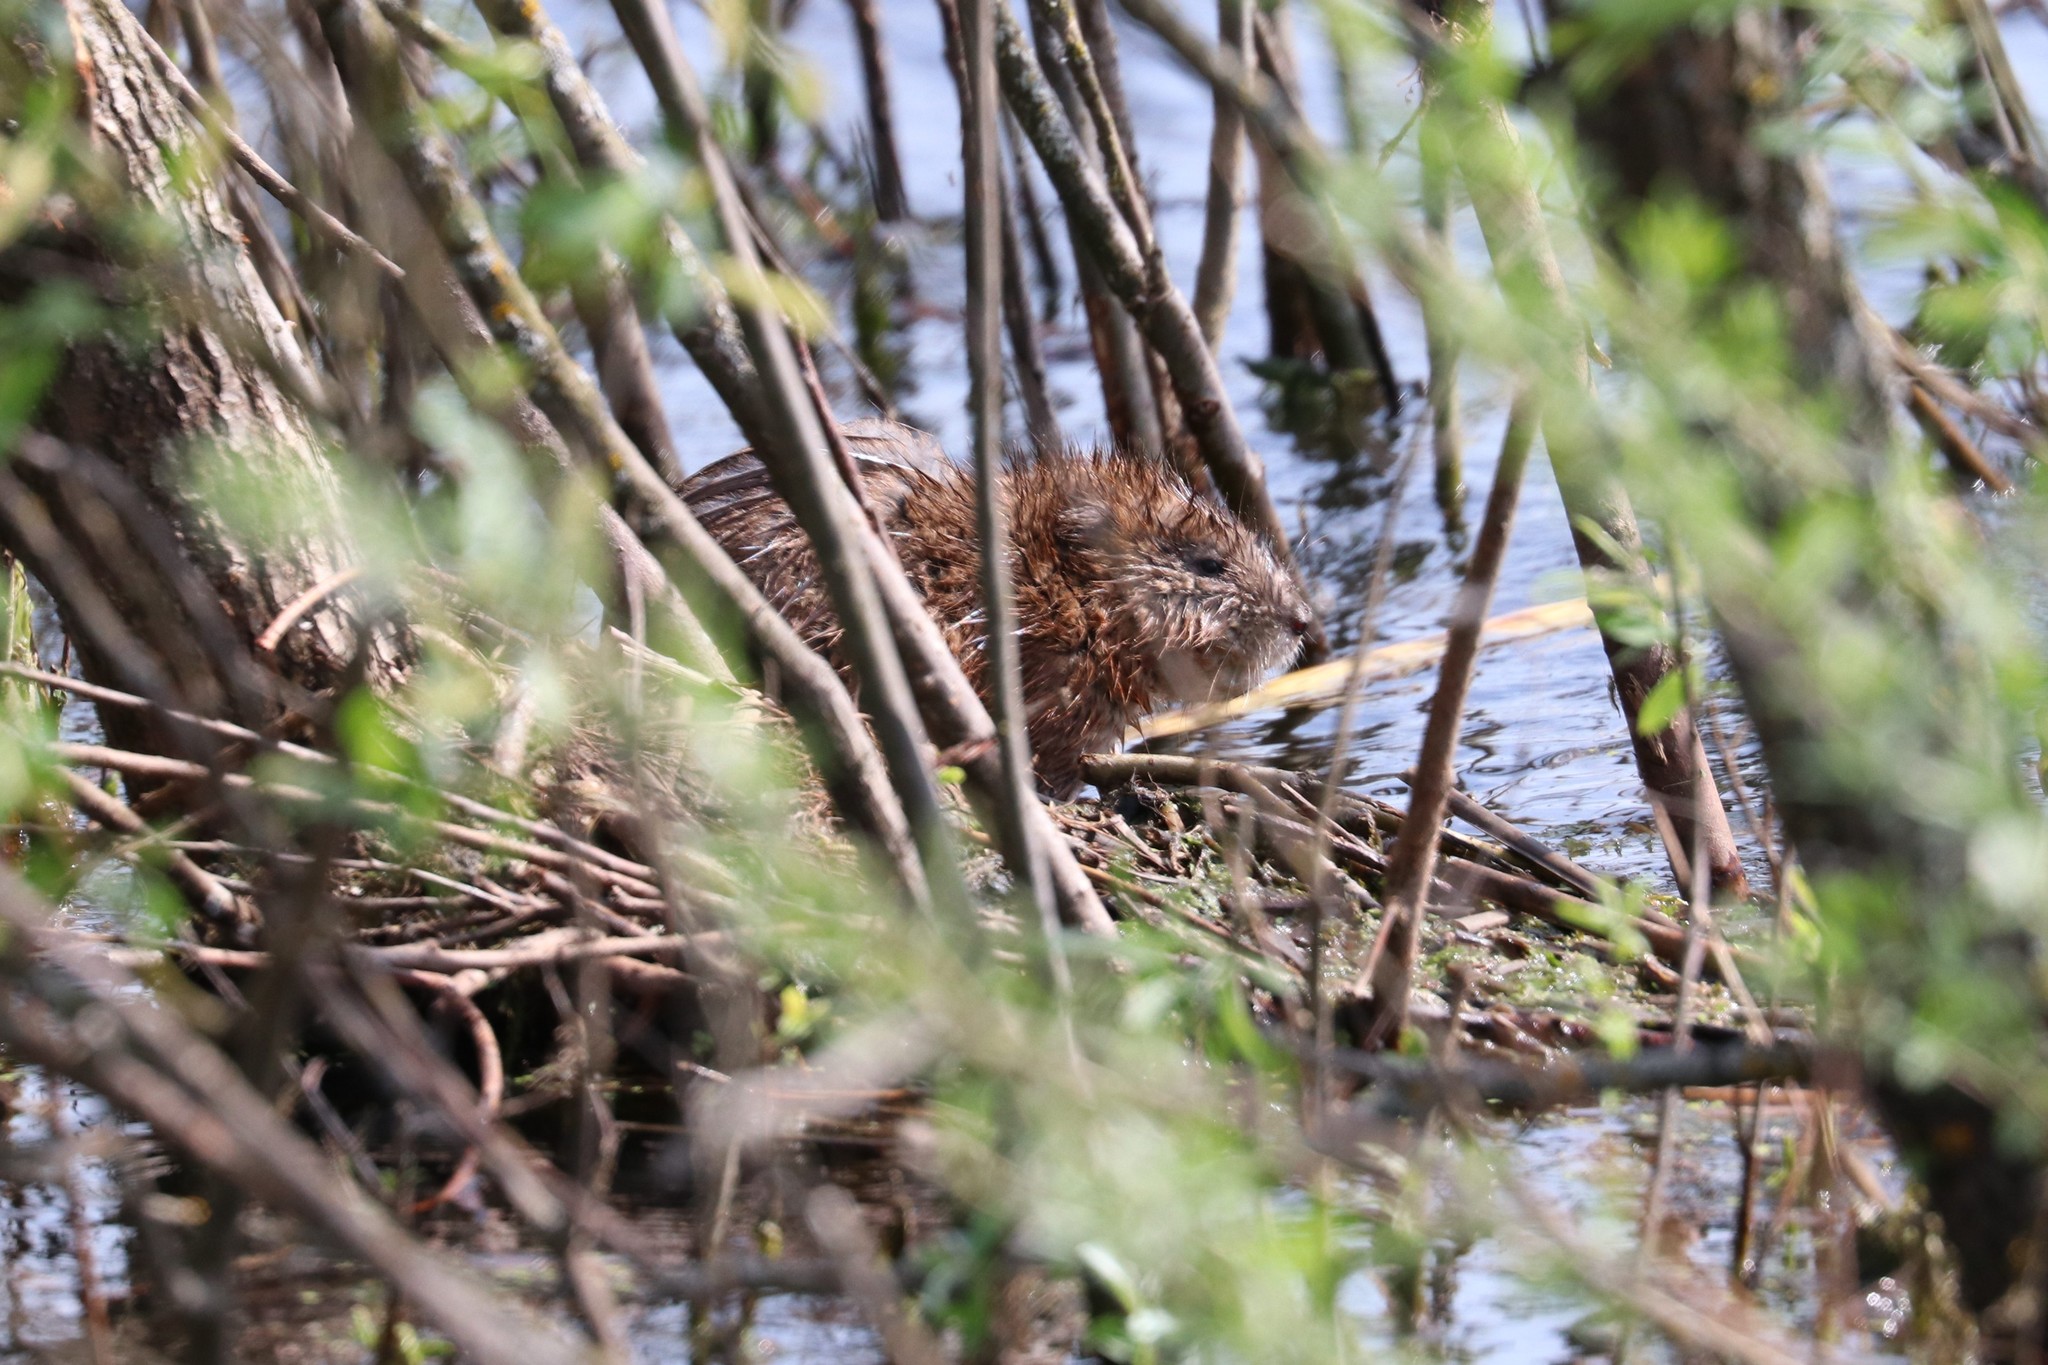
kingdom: Animalia
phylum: Chordata
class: Mammalia
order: Rodentia
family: Cricetidae
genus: Ondatra
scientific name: Ondatra zibethicus
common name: Muskrat
